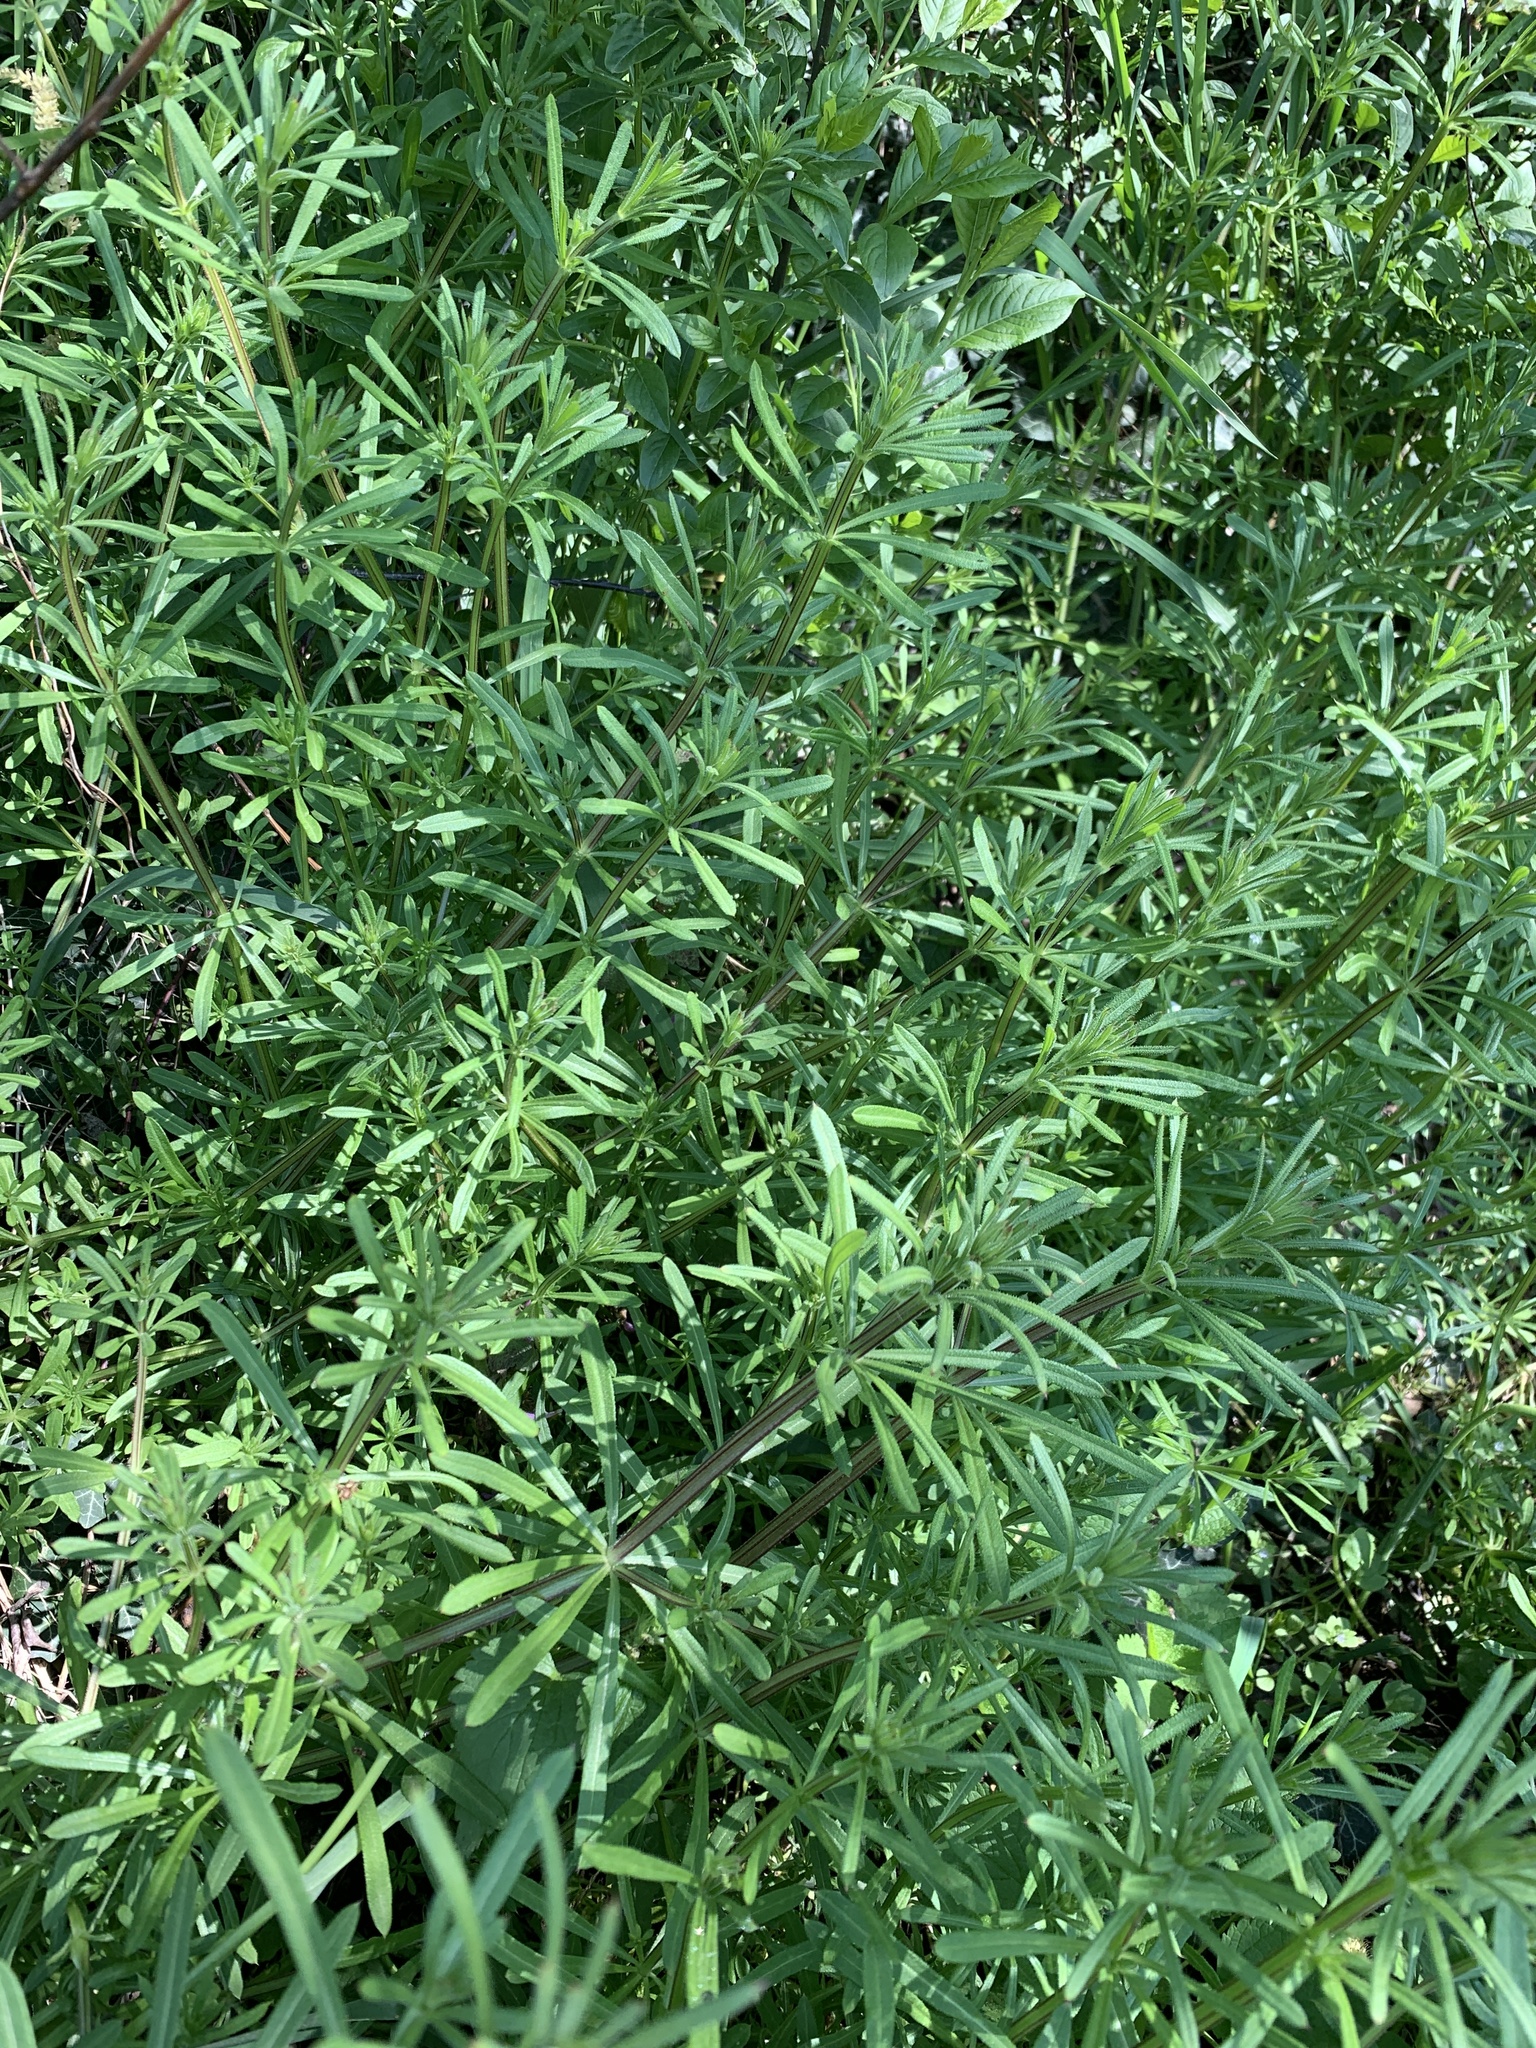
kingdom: Plantae
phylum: Tracheophyta
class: Magnoliopsida
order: Gentianales
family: Rubiaceae
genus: Galium
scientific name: Galium aparine
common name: Cleavers
